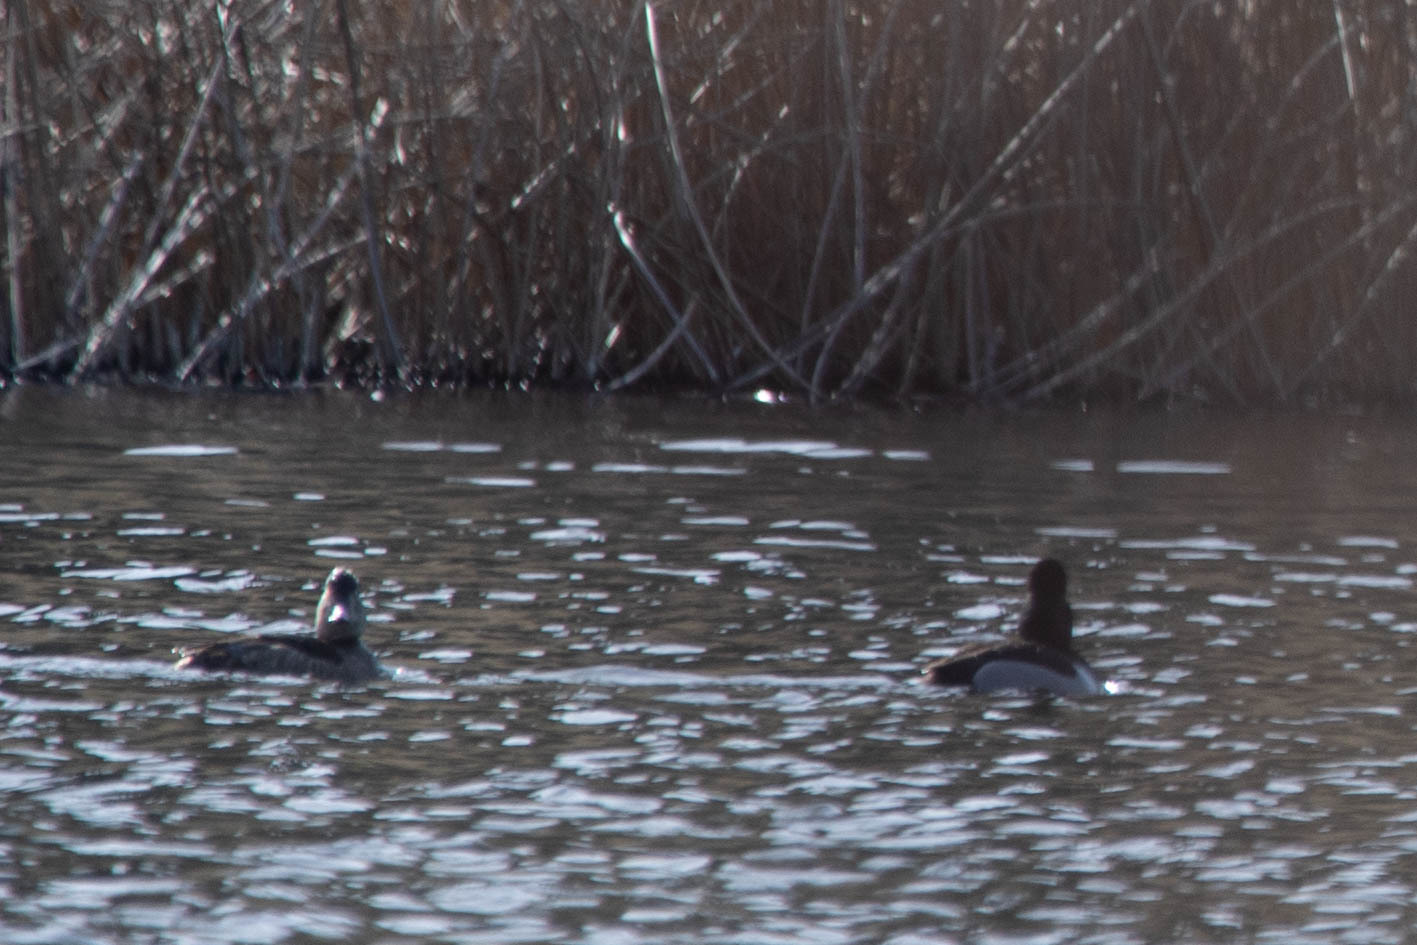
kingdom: Animalia
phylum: Chordata
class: Aves
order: Anseriformes
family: Anatidae
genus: Aythya
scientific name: Aythya collaris
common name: Ring-necked duck
